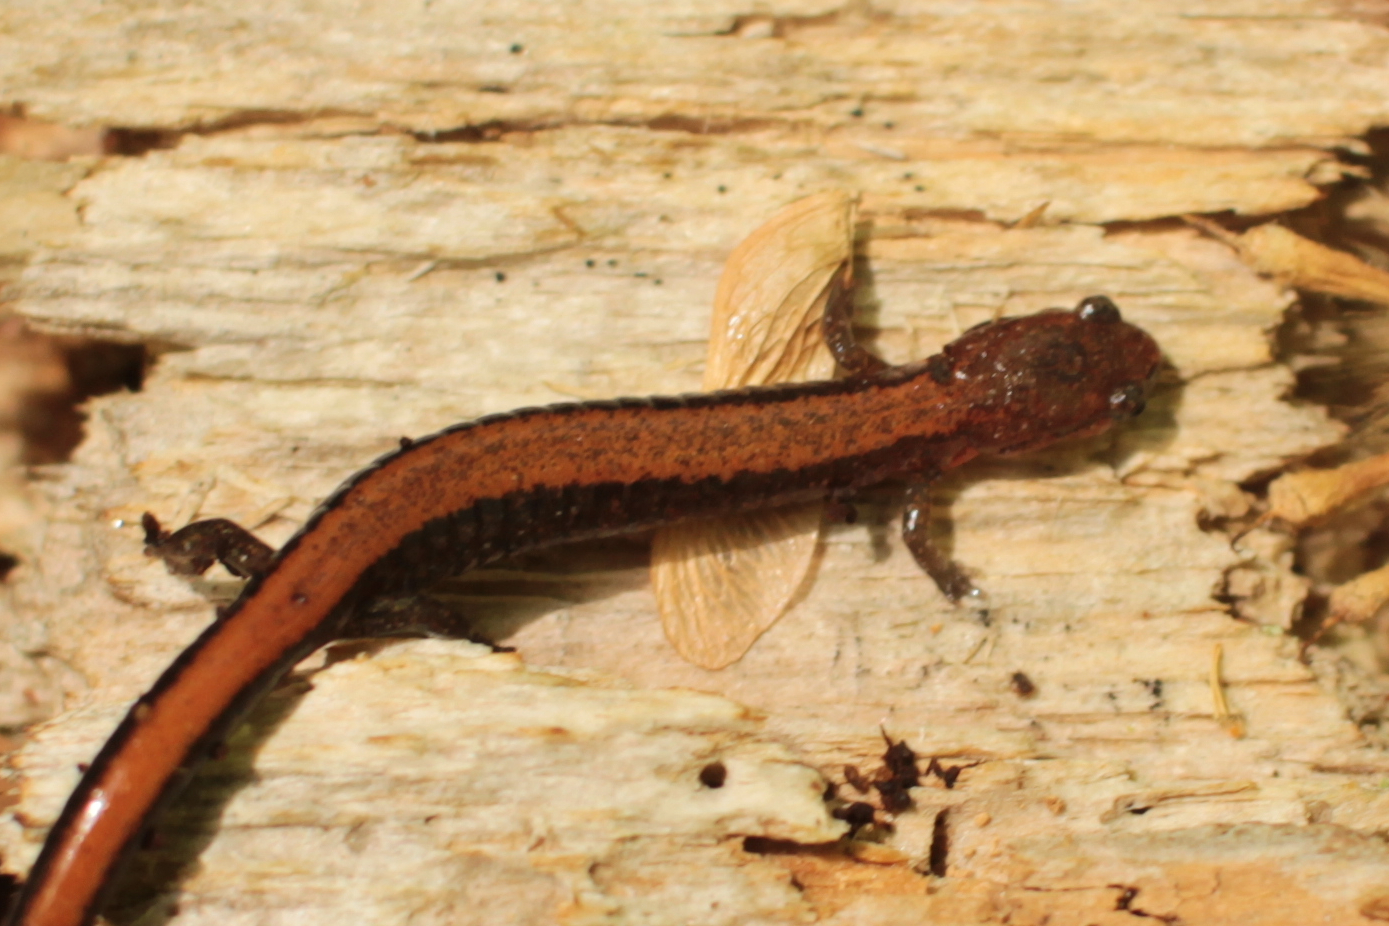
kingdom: Animalia
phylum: Chordata
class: Amphibia
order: Caudata
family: Plethodontidae
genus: Plethodon
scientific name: Plethodon serratus
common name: Southern red-backed salamander
